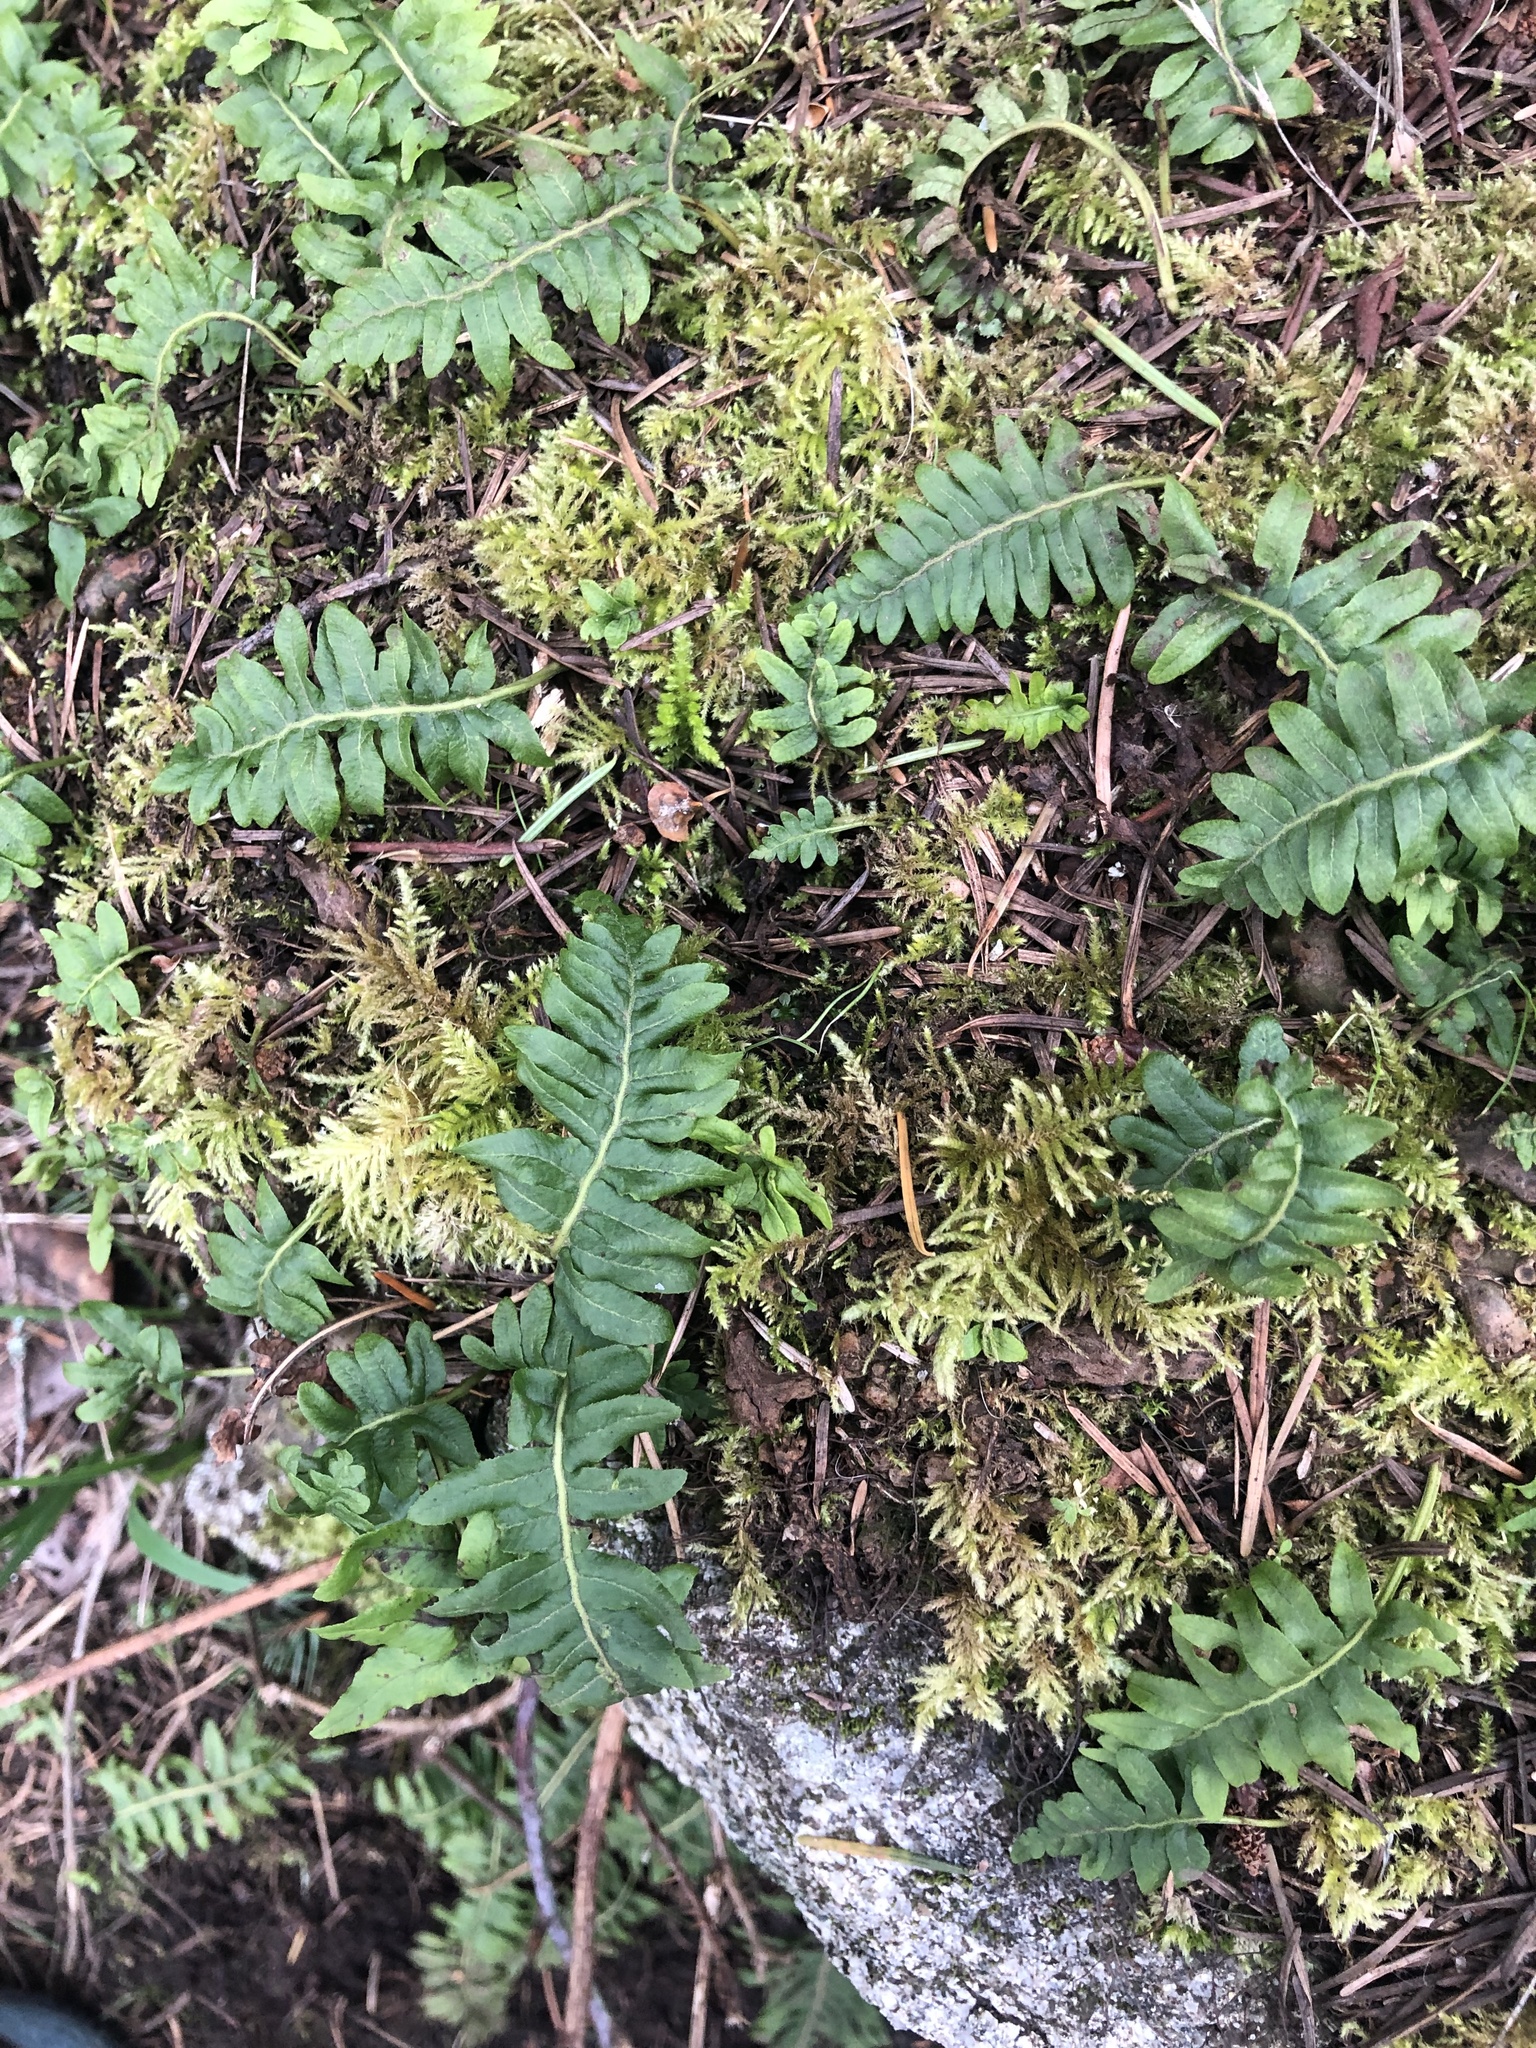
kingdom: Plantae
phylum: Tracheophyta
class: Polypodiopsida
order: Polypodiales
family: Polypodiaceae
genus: Polypodium
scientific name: Polypodium glycyrrhiza
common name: Licorice fern
